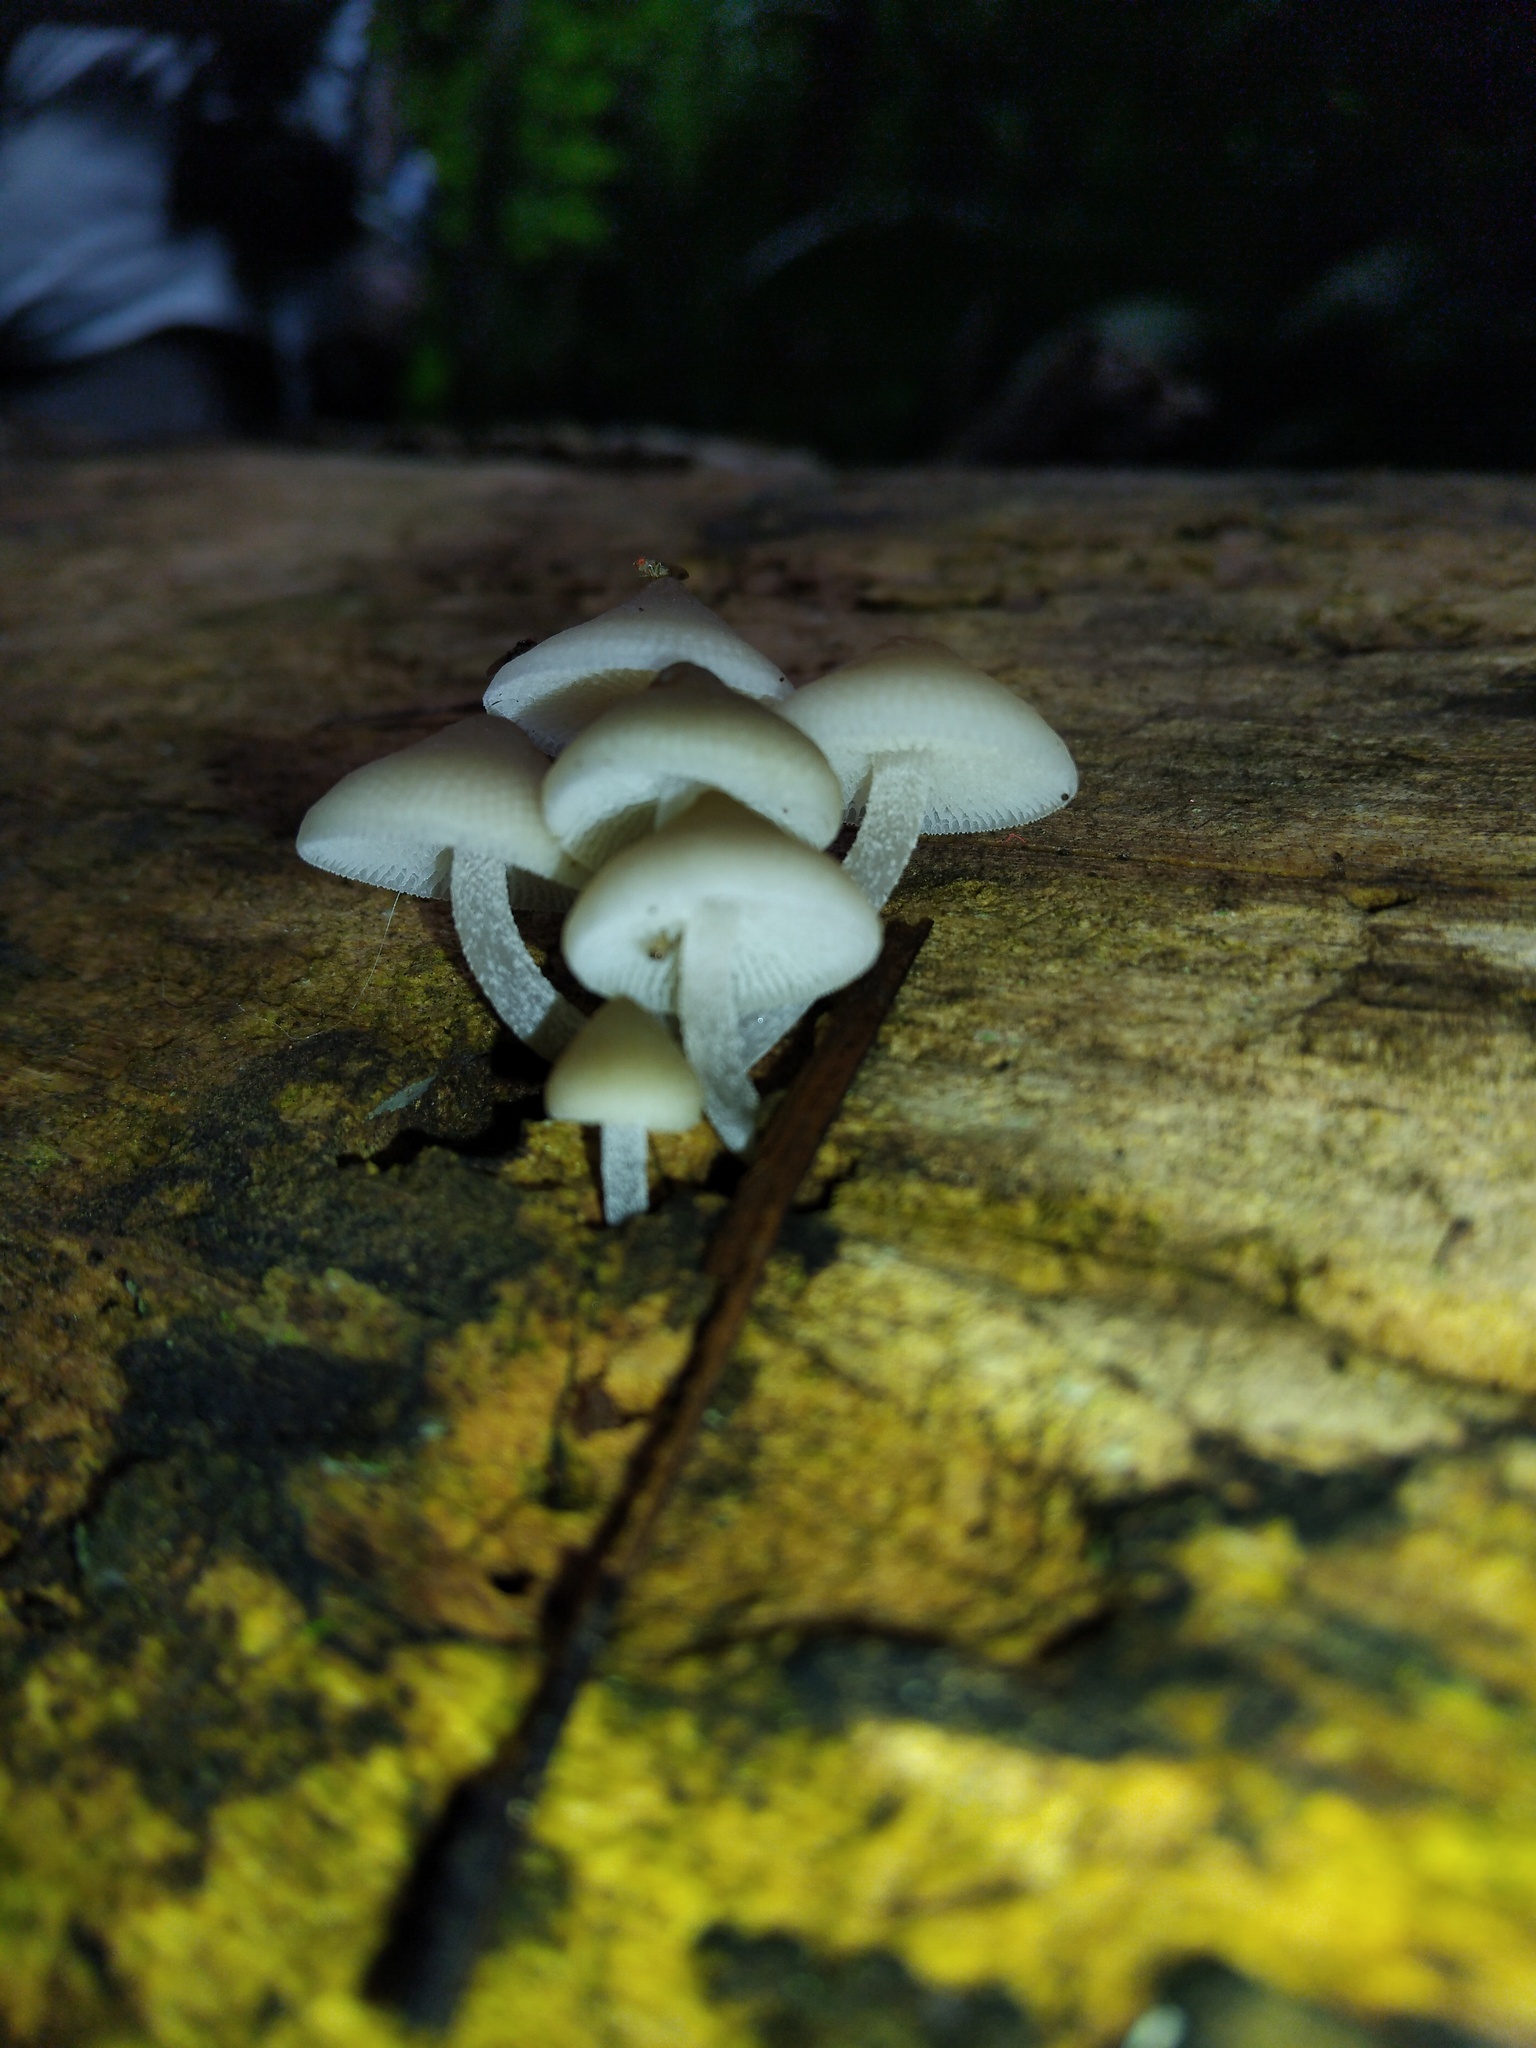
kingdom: Fungi
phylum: Basidiomycota
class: Agaricomycetes
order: Agaricales
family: Mycenaceae
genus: Filoboletus
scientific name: Filoboletus manipularis
